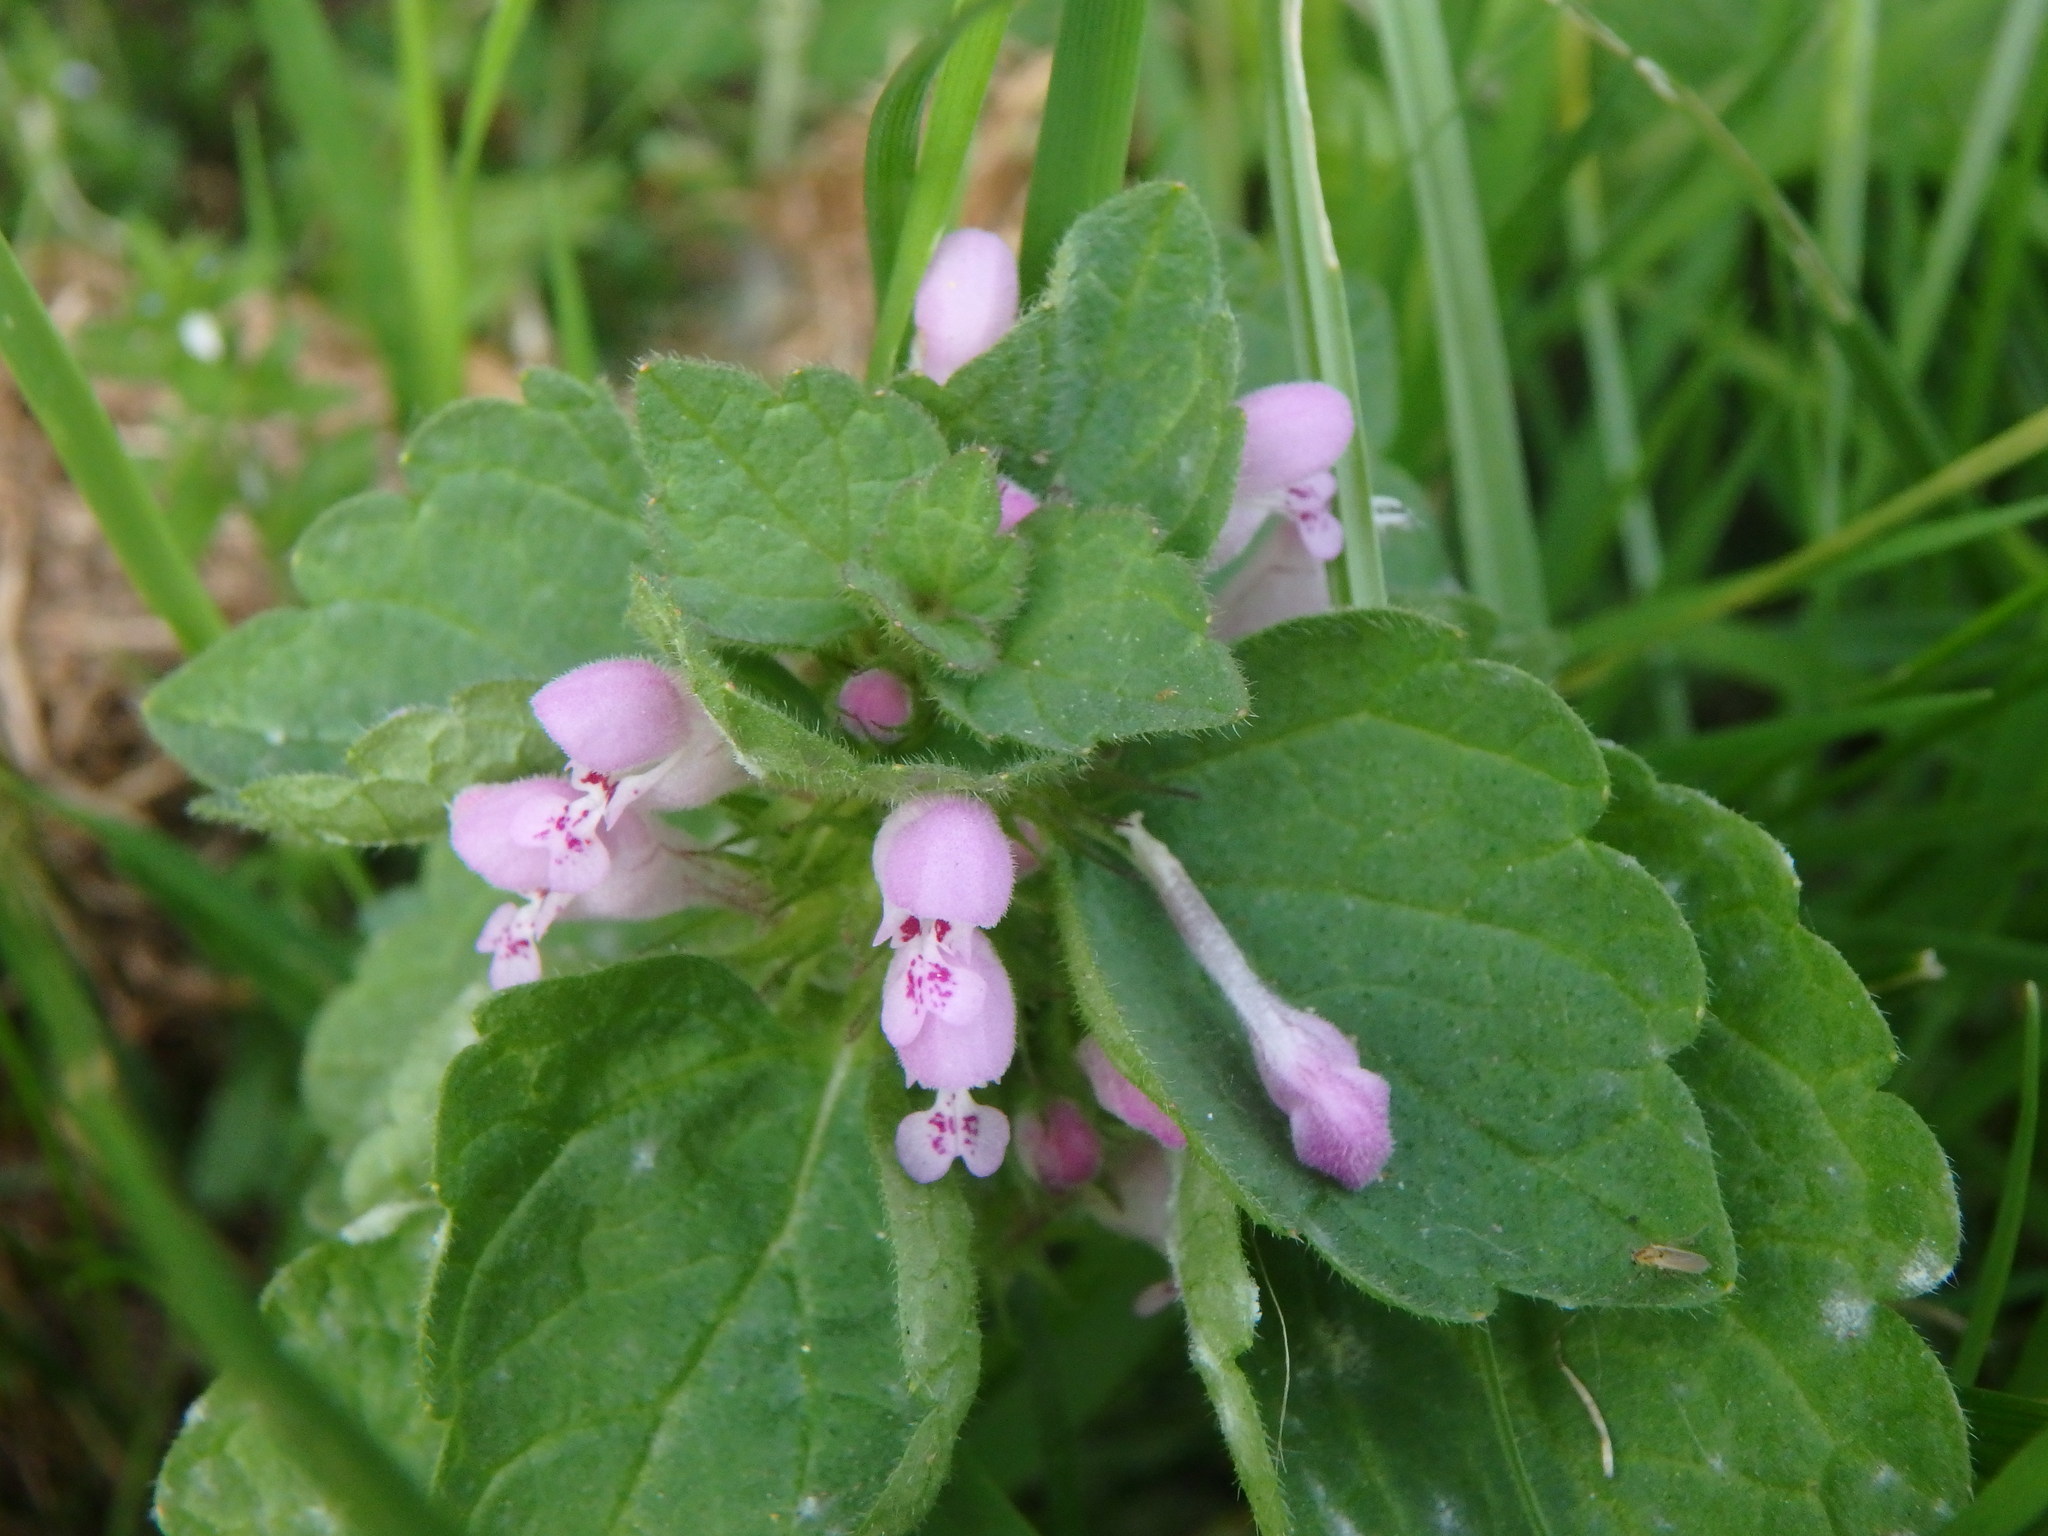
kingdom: Plantae
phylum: Tracheophyta
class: Magnoliopsida
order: Lamiales
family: Lamiaceae
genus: Lamium
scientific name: Lamium purpureum
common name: Red dead-nettle
